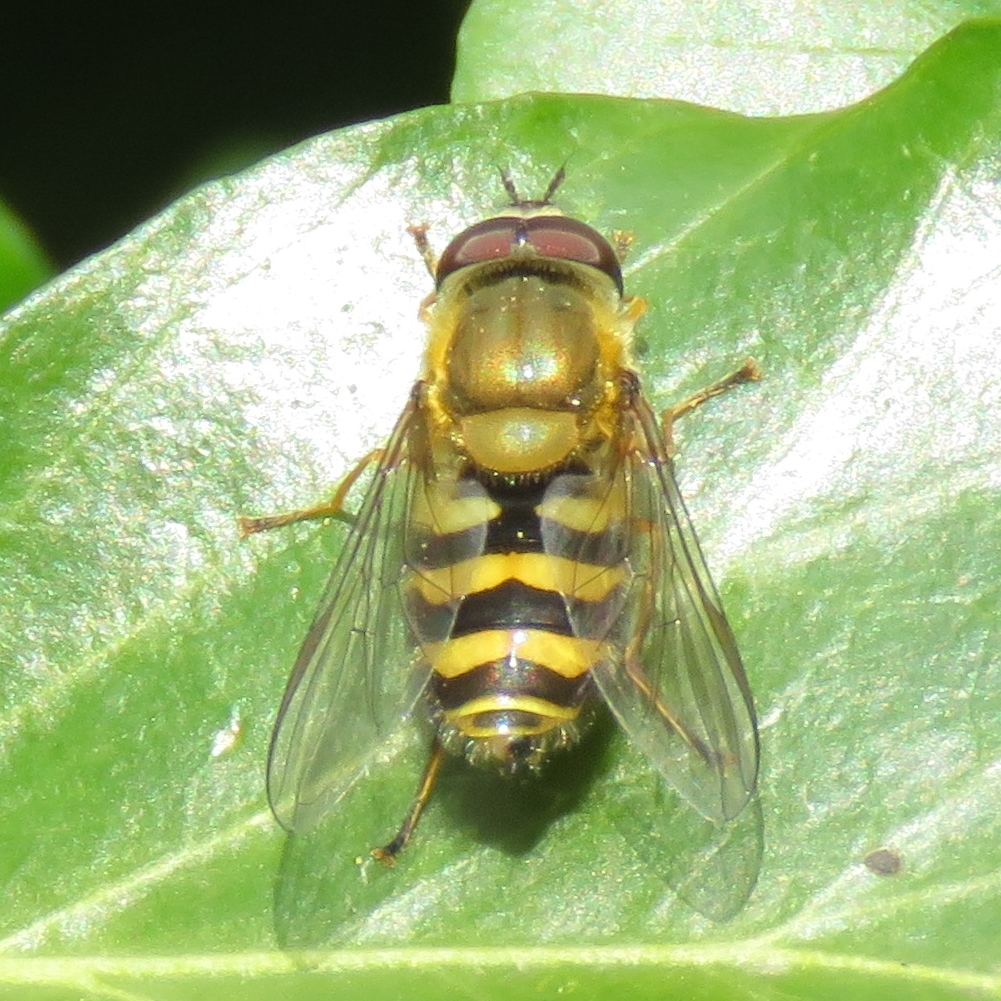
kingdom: Animalia
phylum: Arthropoda
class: Insecta
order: Diptera
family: Syrphidae
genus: Syrphus
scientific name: Syrphus
